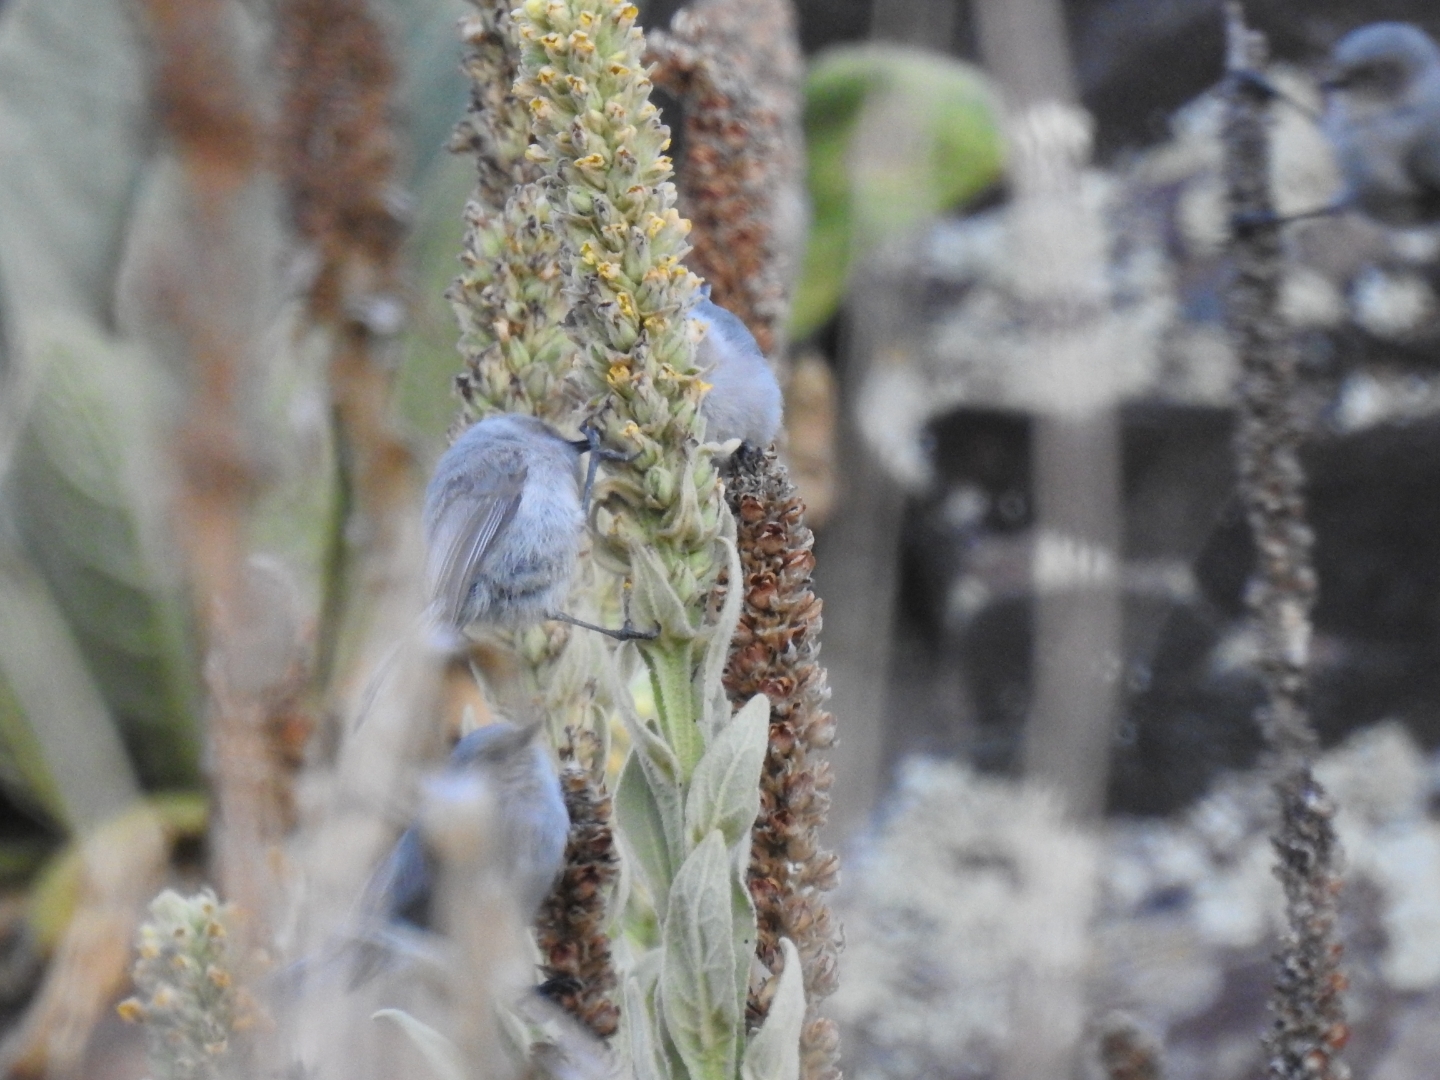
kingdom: Animalia
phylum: Chordata
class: Aves
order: Passeriformes
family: Aegithalidae
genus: Psaltriparus
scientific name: Psaltriparus minimus
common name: American bushtit
